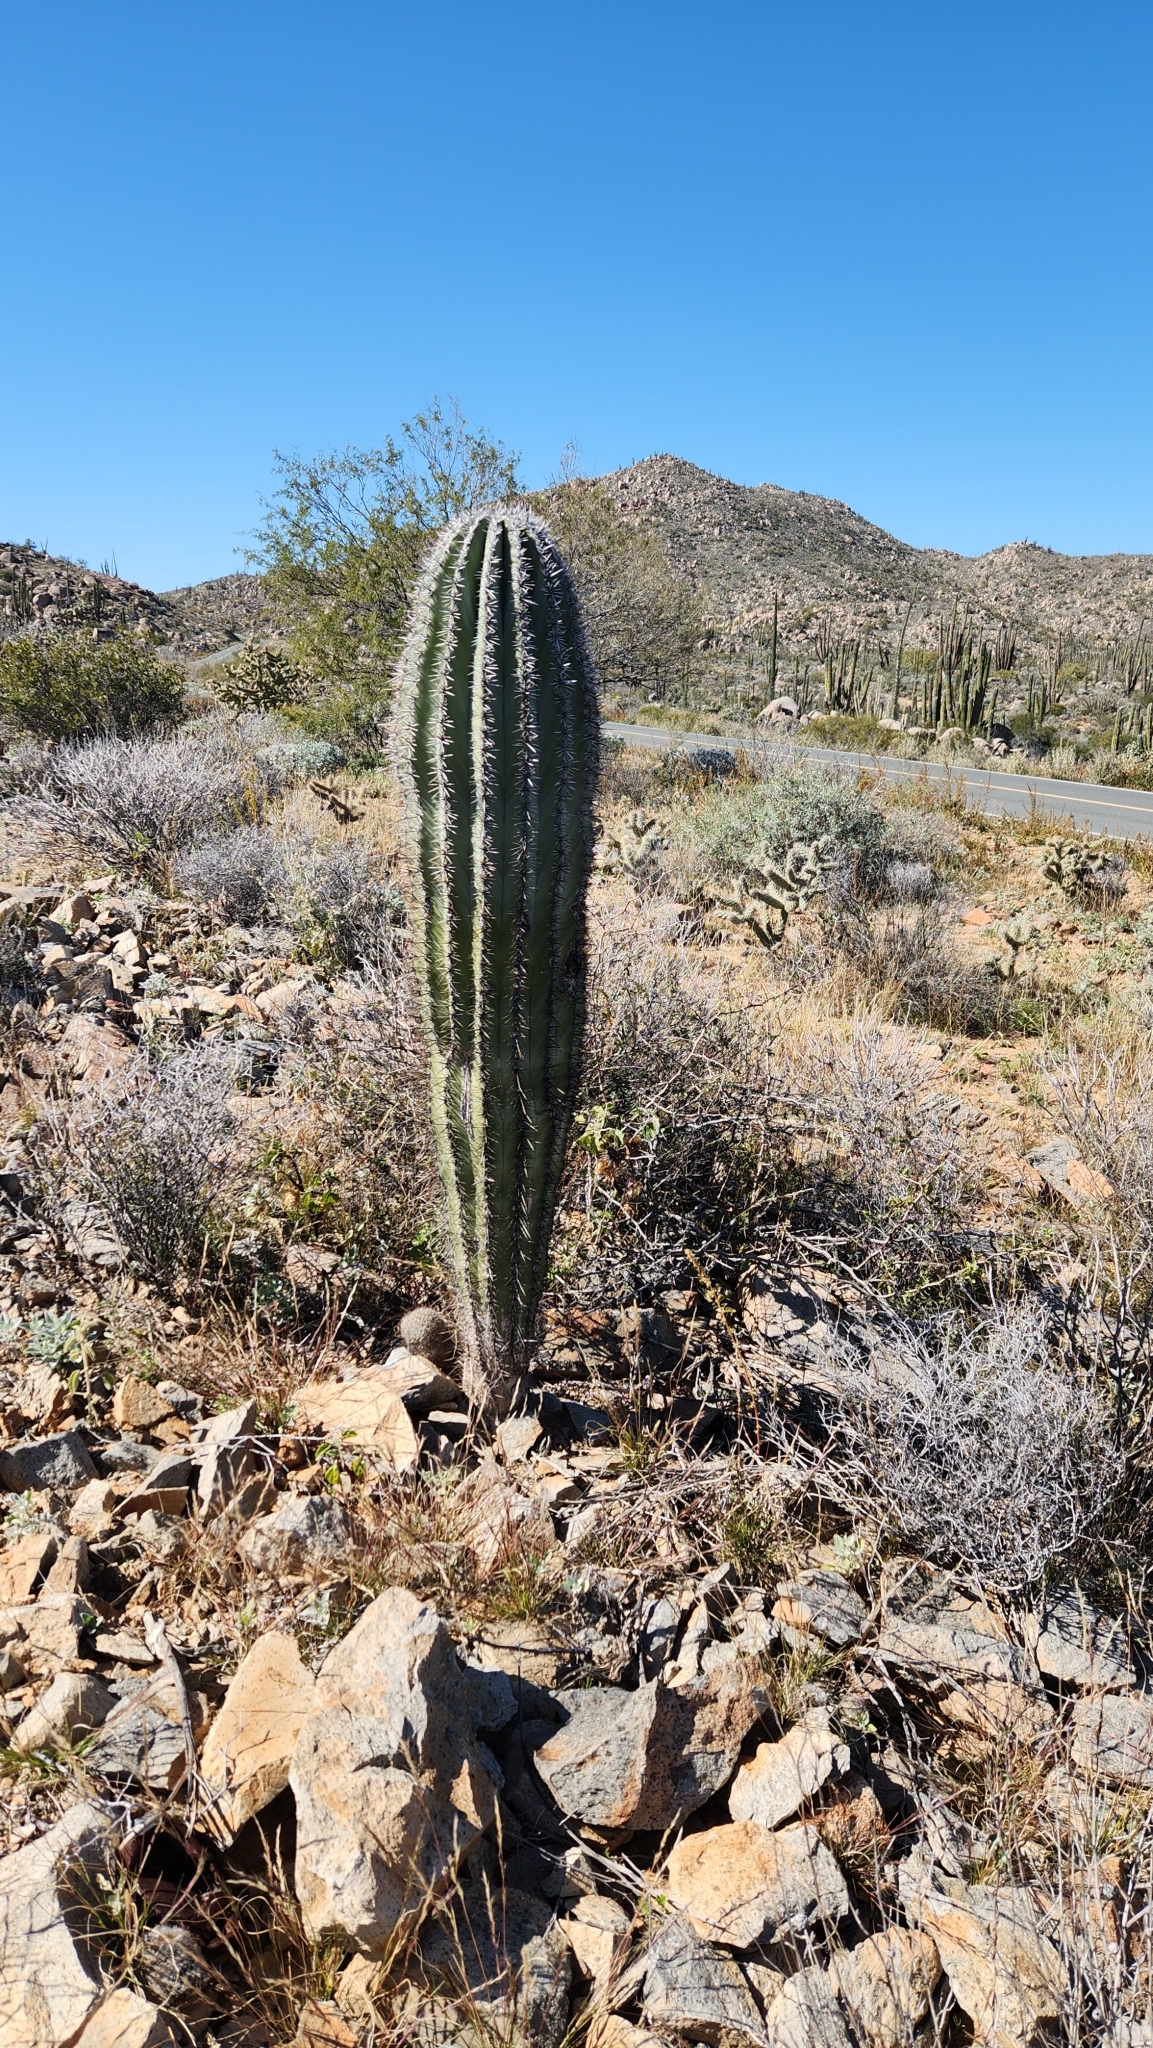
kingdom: Plantae
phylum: Tracheophyta
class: Magnoliopsida
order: Caryophyllales
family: Cactaceae
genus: Pachycereus
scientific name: Pachycereus pringlei
